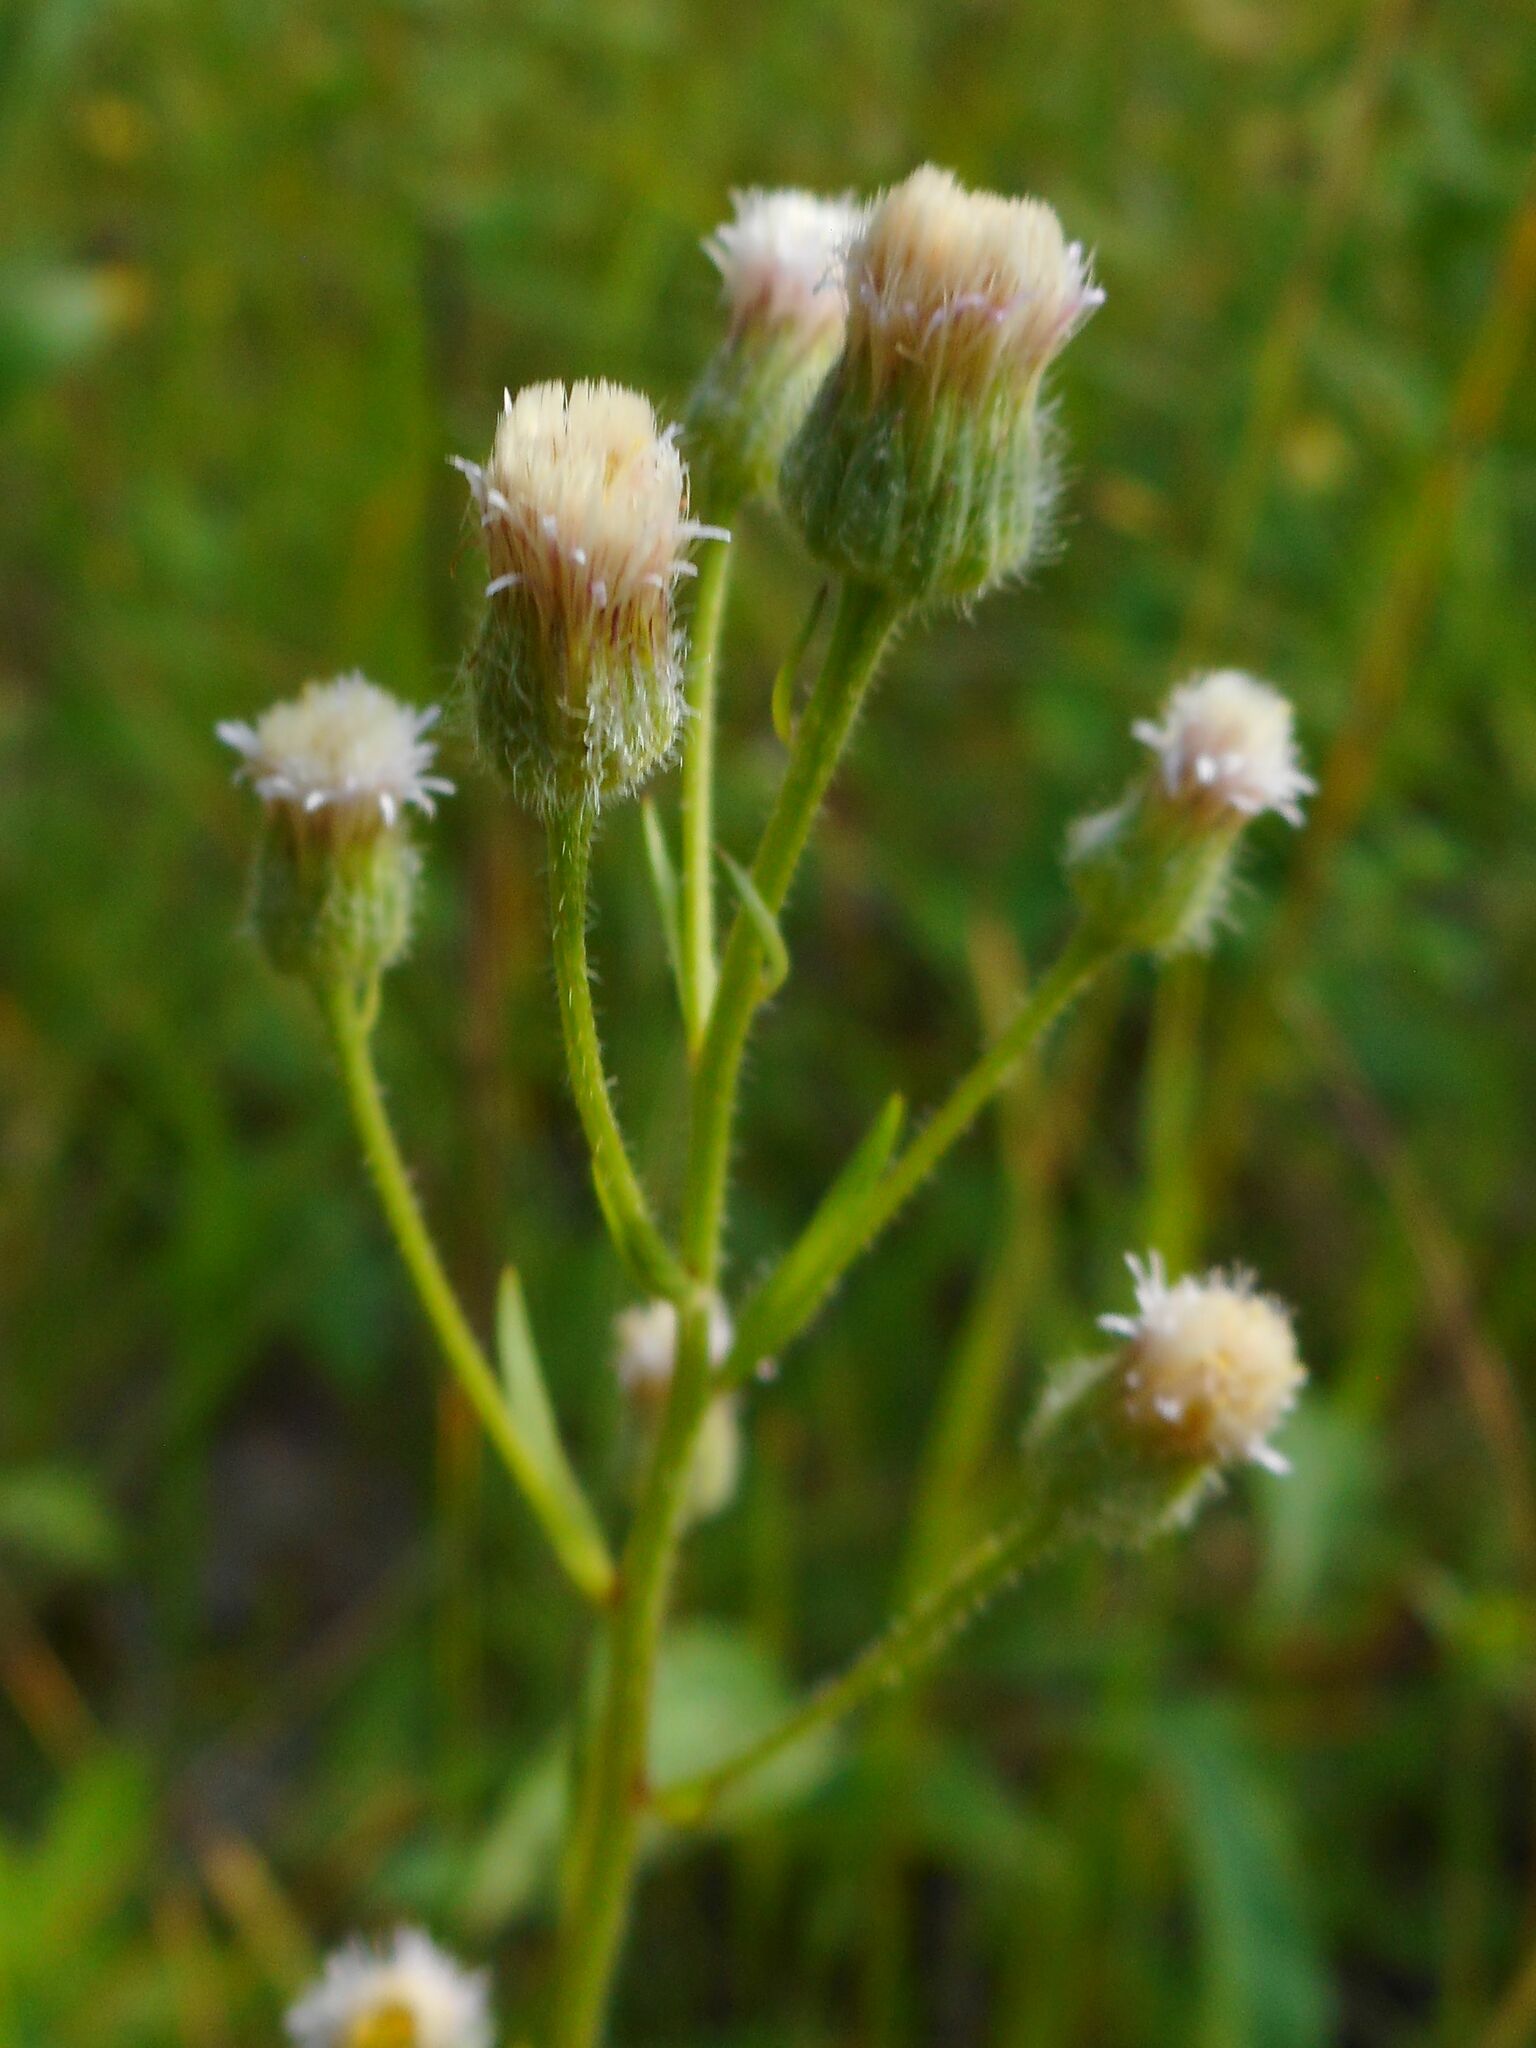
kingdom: Plantae
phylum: Tracheophyta
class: Magnoliopsida
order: Asterales
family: Asteraceae
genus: Erigeron
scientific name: Erigeron acris
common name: Blue fleabane
